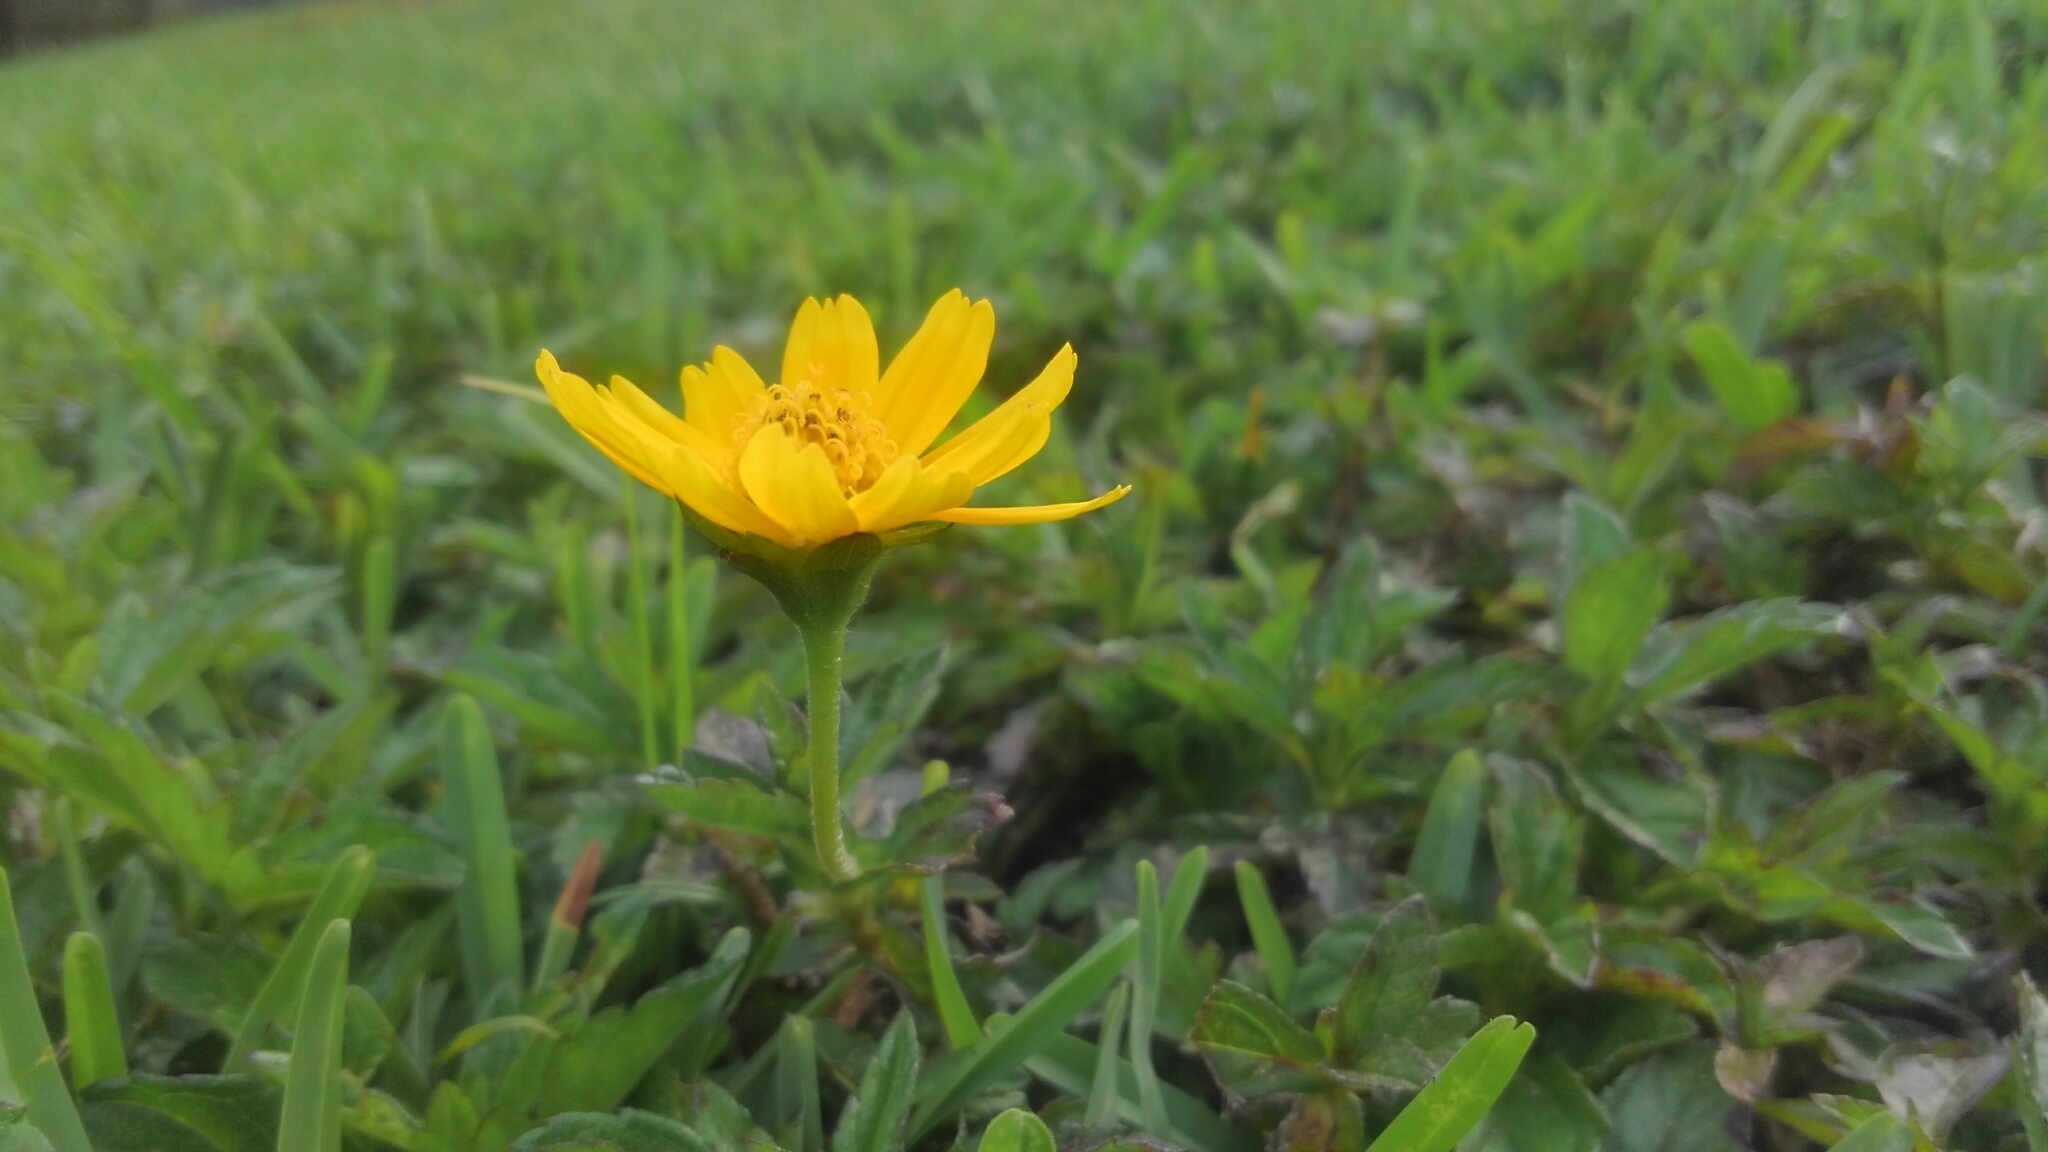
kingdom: Plantae
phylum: Tracheophyta
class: Magnoliopsida
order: Asterales
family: Asteraceae
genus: Sphagneticola
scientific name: Sphagneticola trilobata
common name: Bay biscayne creeping-oxeye
